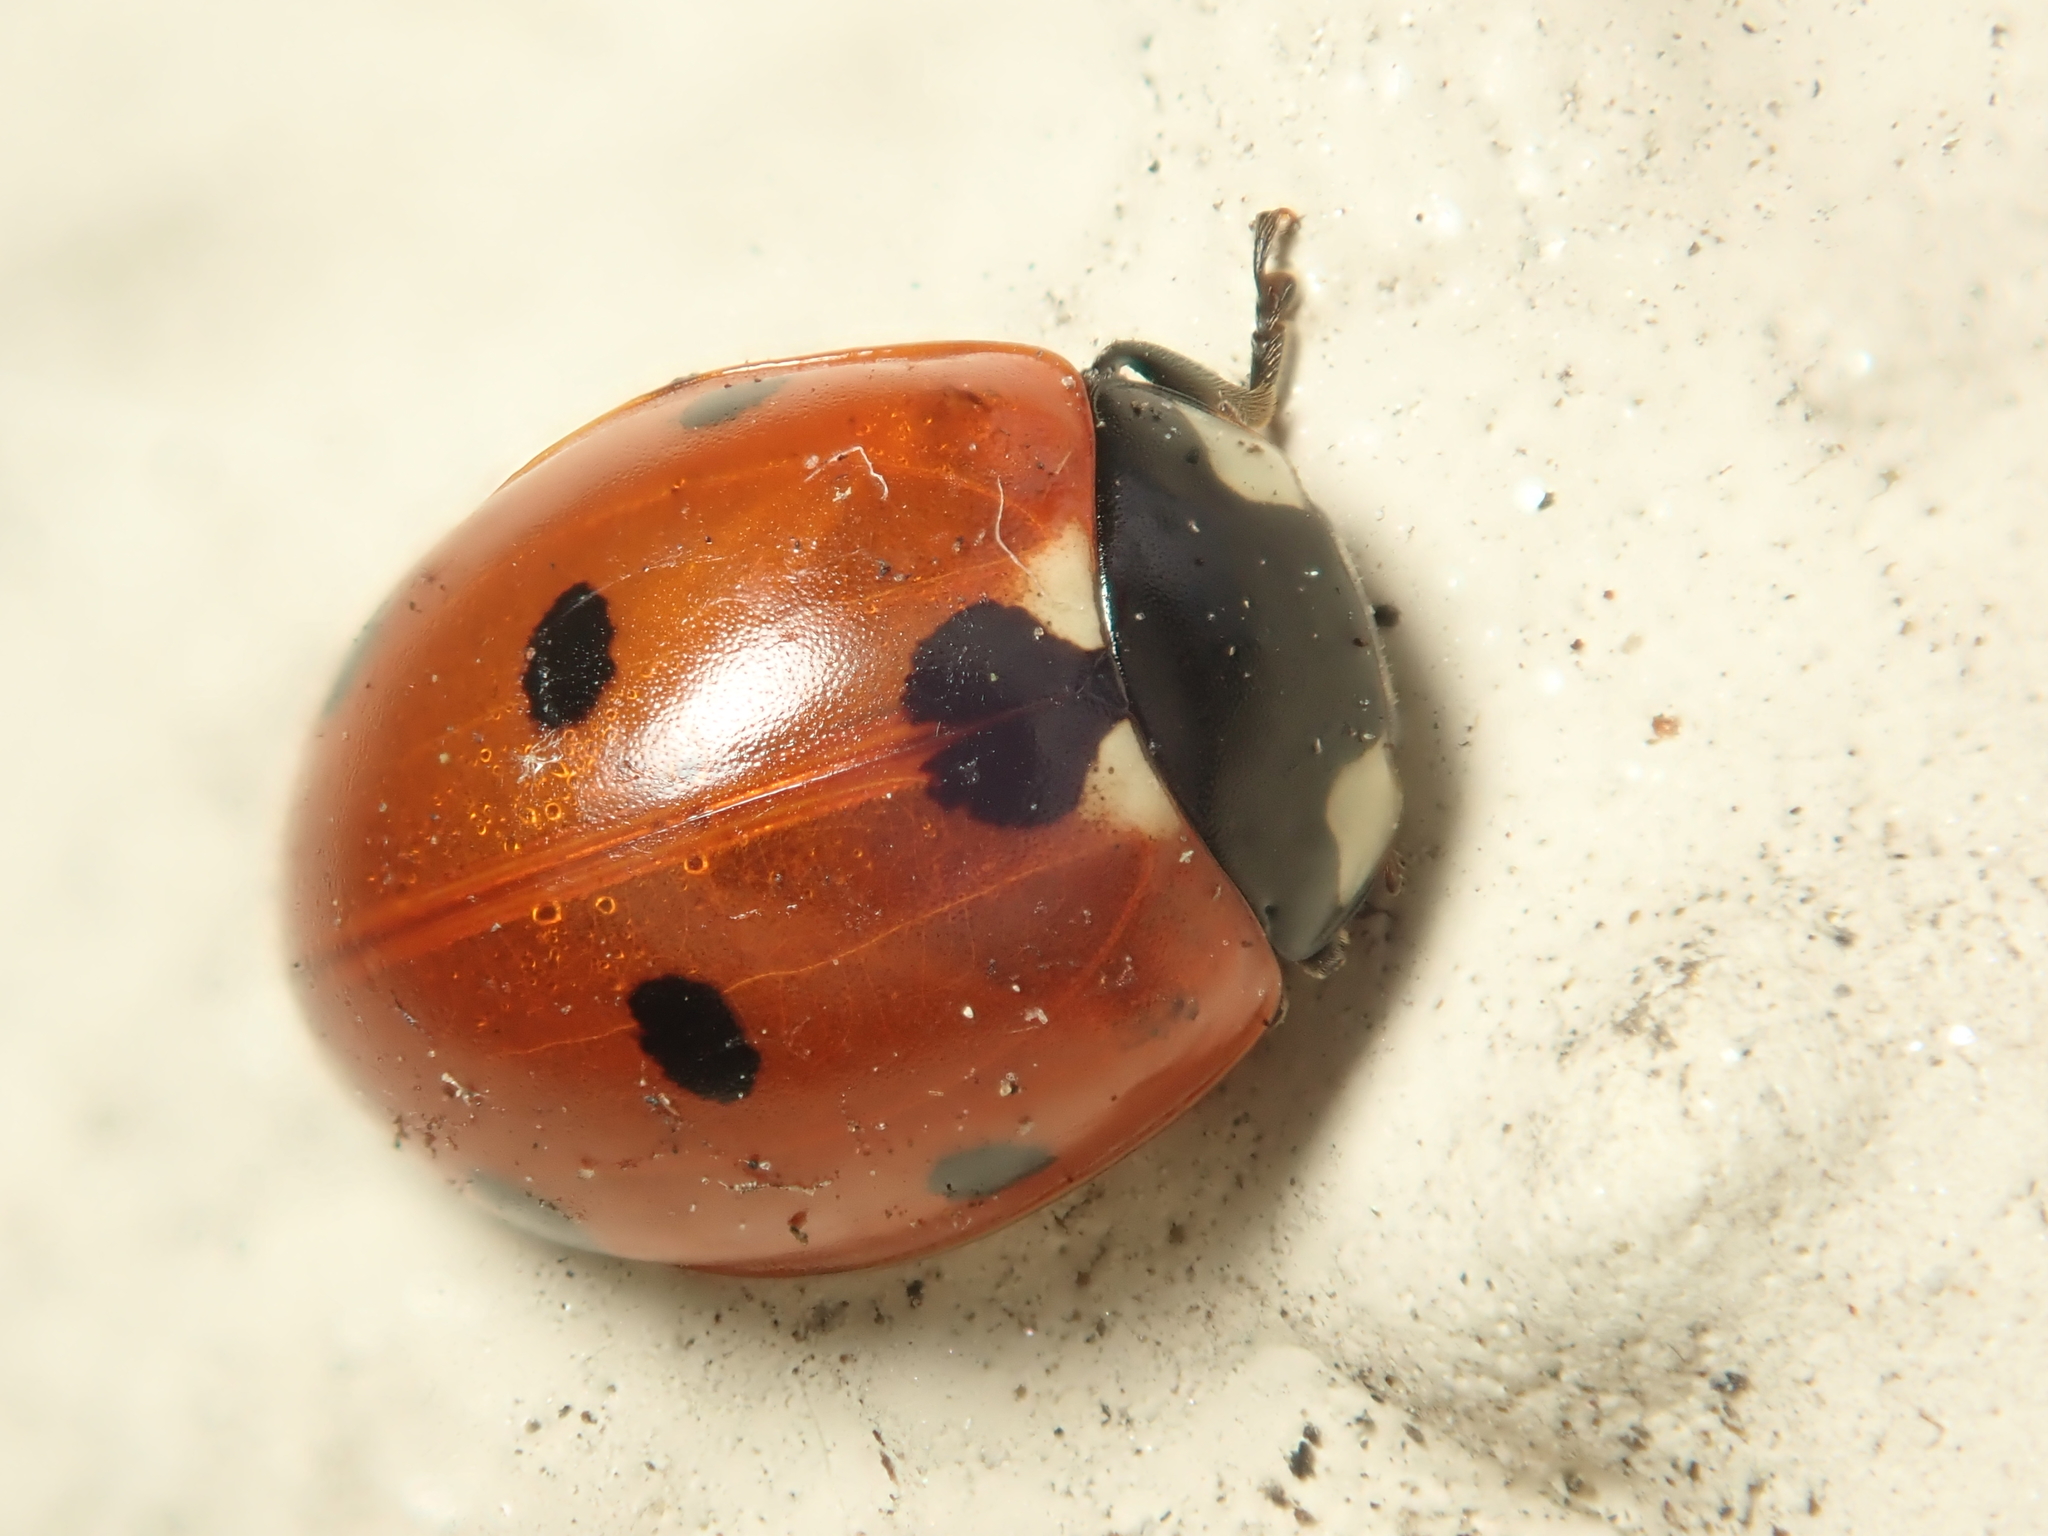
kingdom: Animalia
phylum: Arthropoda
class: Insecta
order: Coleoptera
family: Coccinellidae
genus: Coccinella
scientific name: Coccinella septempunctata
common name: Sevenspotted lady beetle
